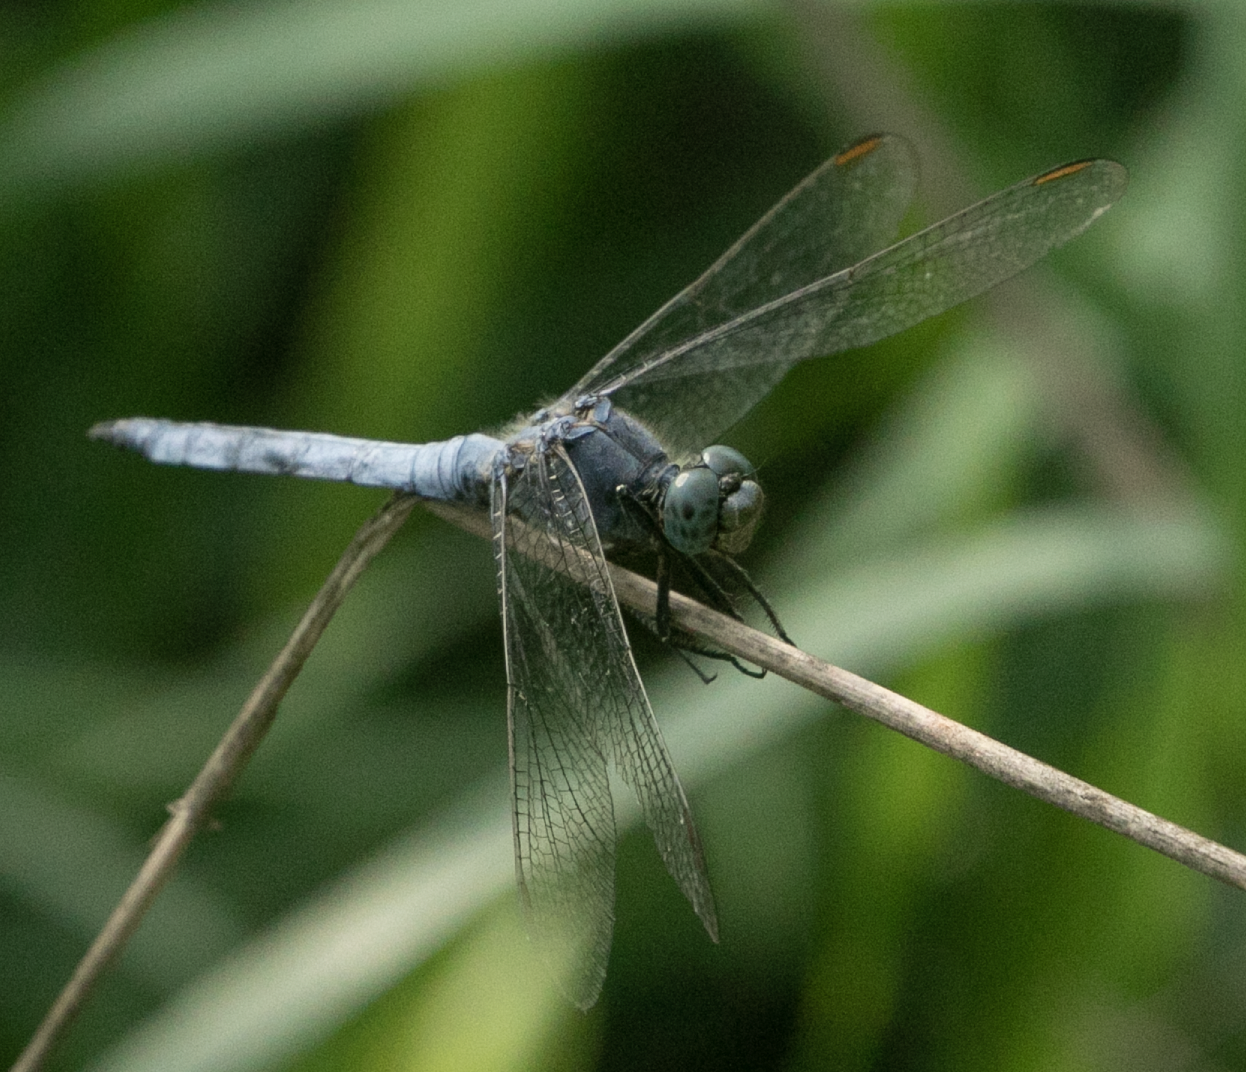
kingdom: Animalia
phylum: Arthropoda
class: Insecta
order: Odonata
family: Libellulidae
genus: Orthetrum
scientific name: Orthetrum coerulescens
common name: Keeled skimmer
